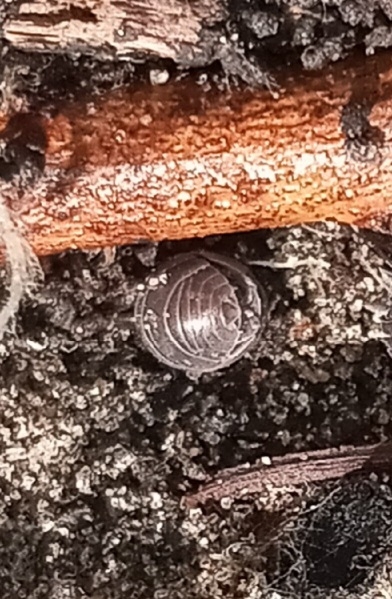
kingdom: Animalia
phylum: Arthropoda
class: Malacostraca
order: Isopoda
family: Armadillidiidae
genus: Armadillidium
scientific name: Armadillidium vulgare
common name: Common pill woodlouse
